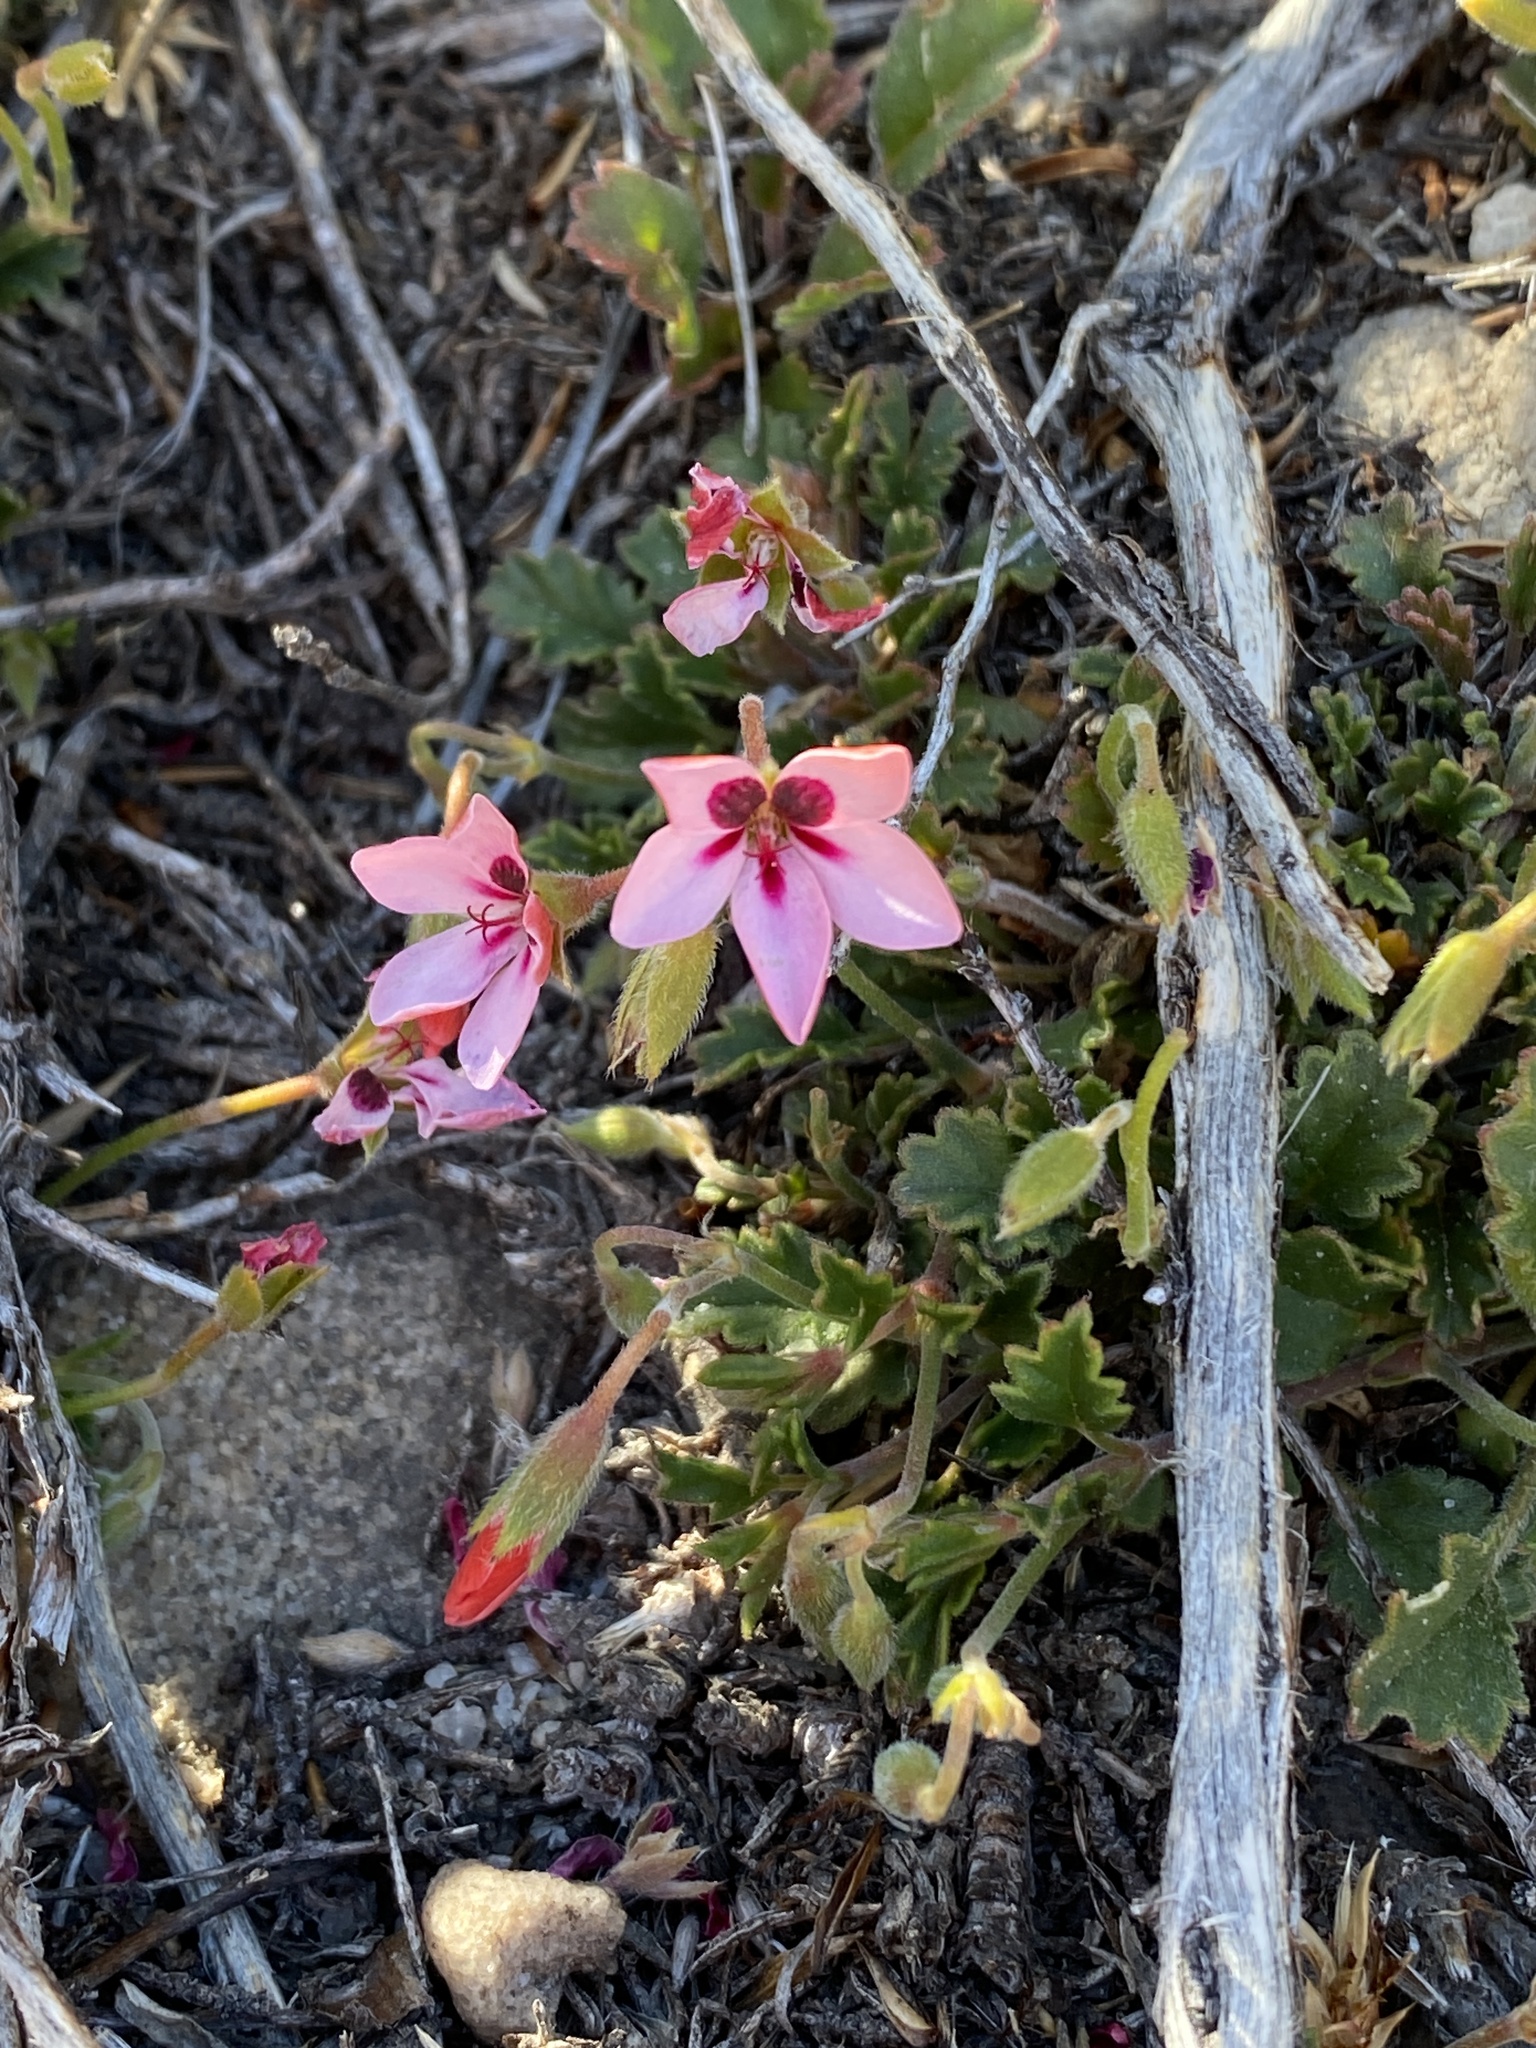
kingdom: Plantae
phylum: Tracheophyta
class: Magnoliopsida
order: Geraniales
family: Geraniaceae
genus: Pelargonium
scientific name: Pelargonium capillare
